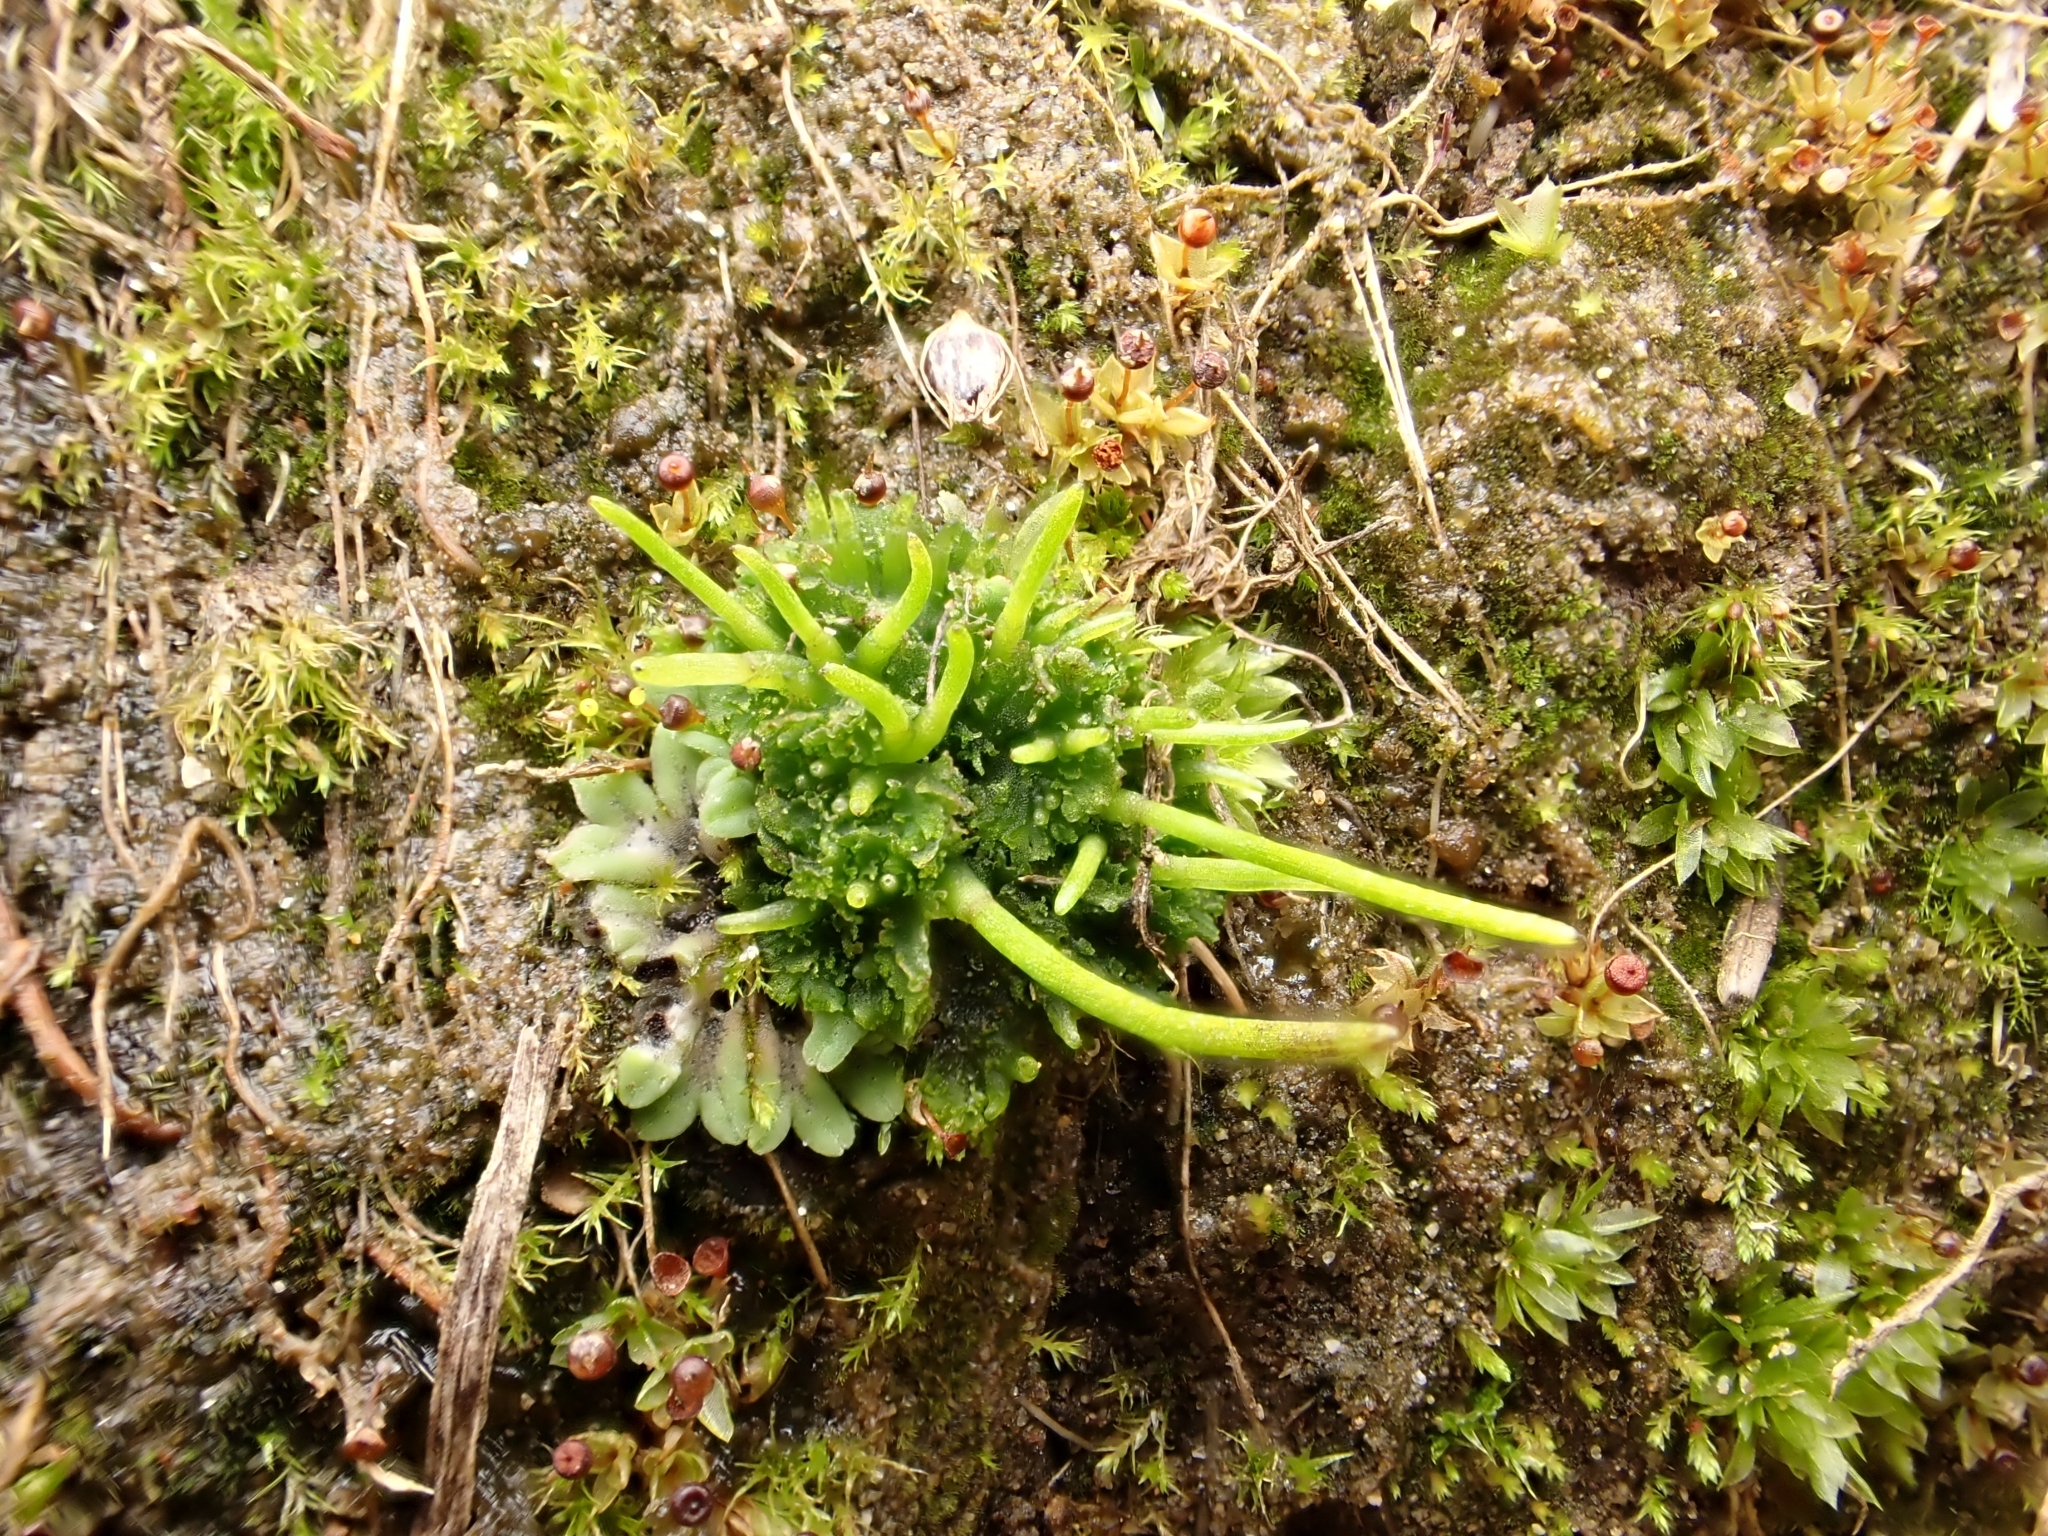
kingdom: Plantae
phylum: Anthocerotophyta
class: Anthocerotopsida
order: Anthocerotales
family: Anthocerotaceae
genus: Anthoceros
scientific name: Anthoceros agrestis
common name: Field hornwort
